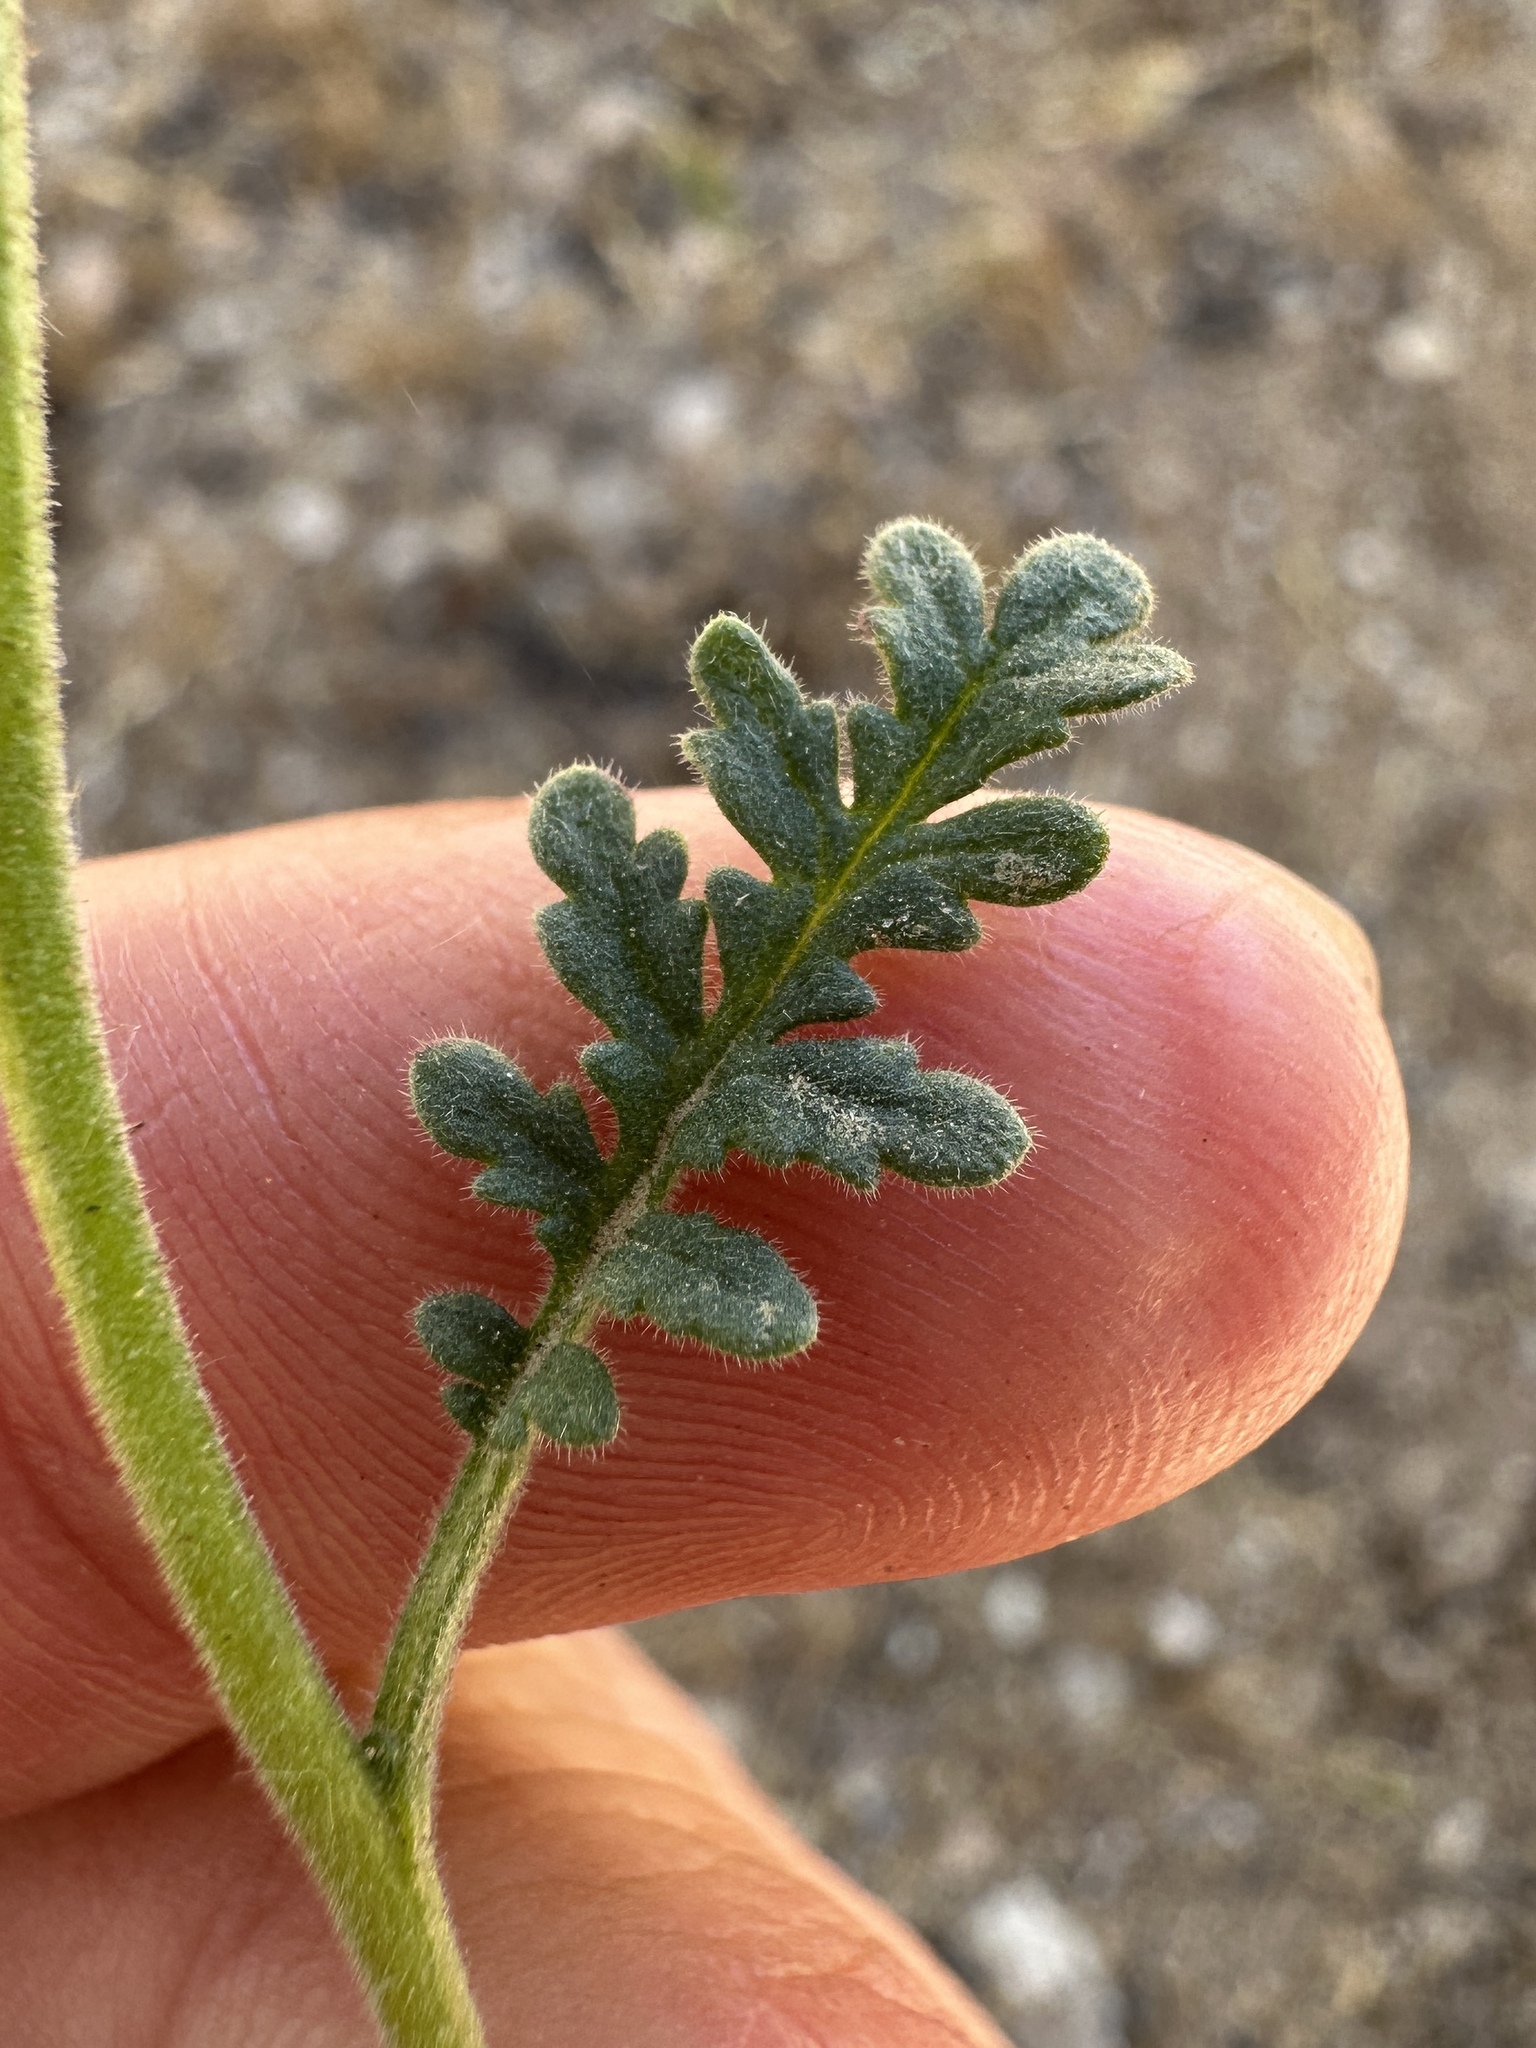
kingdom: Plantae
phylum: Tracheophyta
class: Magnoliopsida
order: Boraginales
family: Hydrophyllaceae
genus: Phacelia
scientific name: Phacelia affinis
